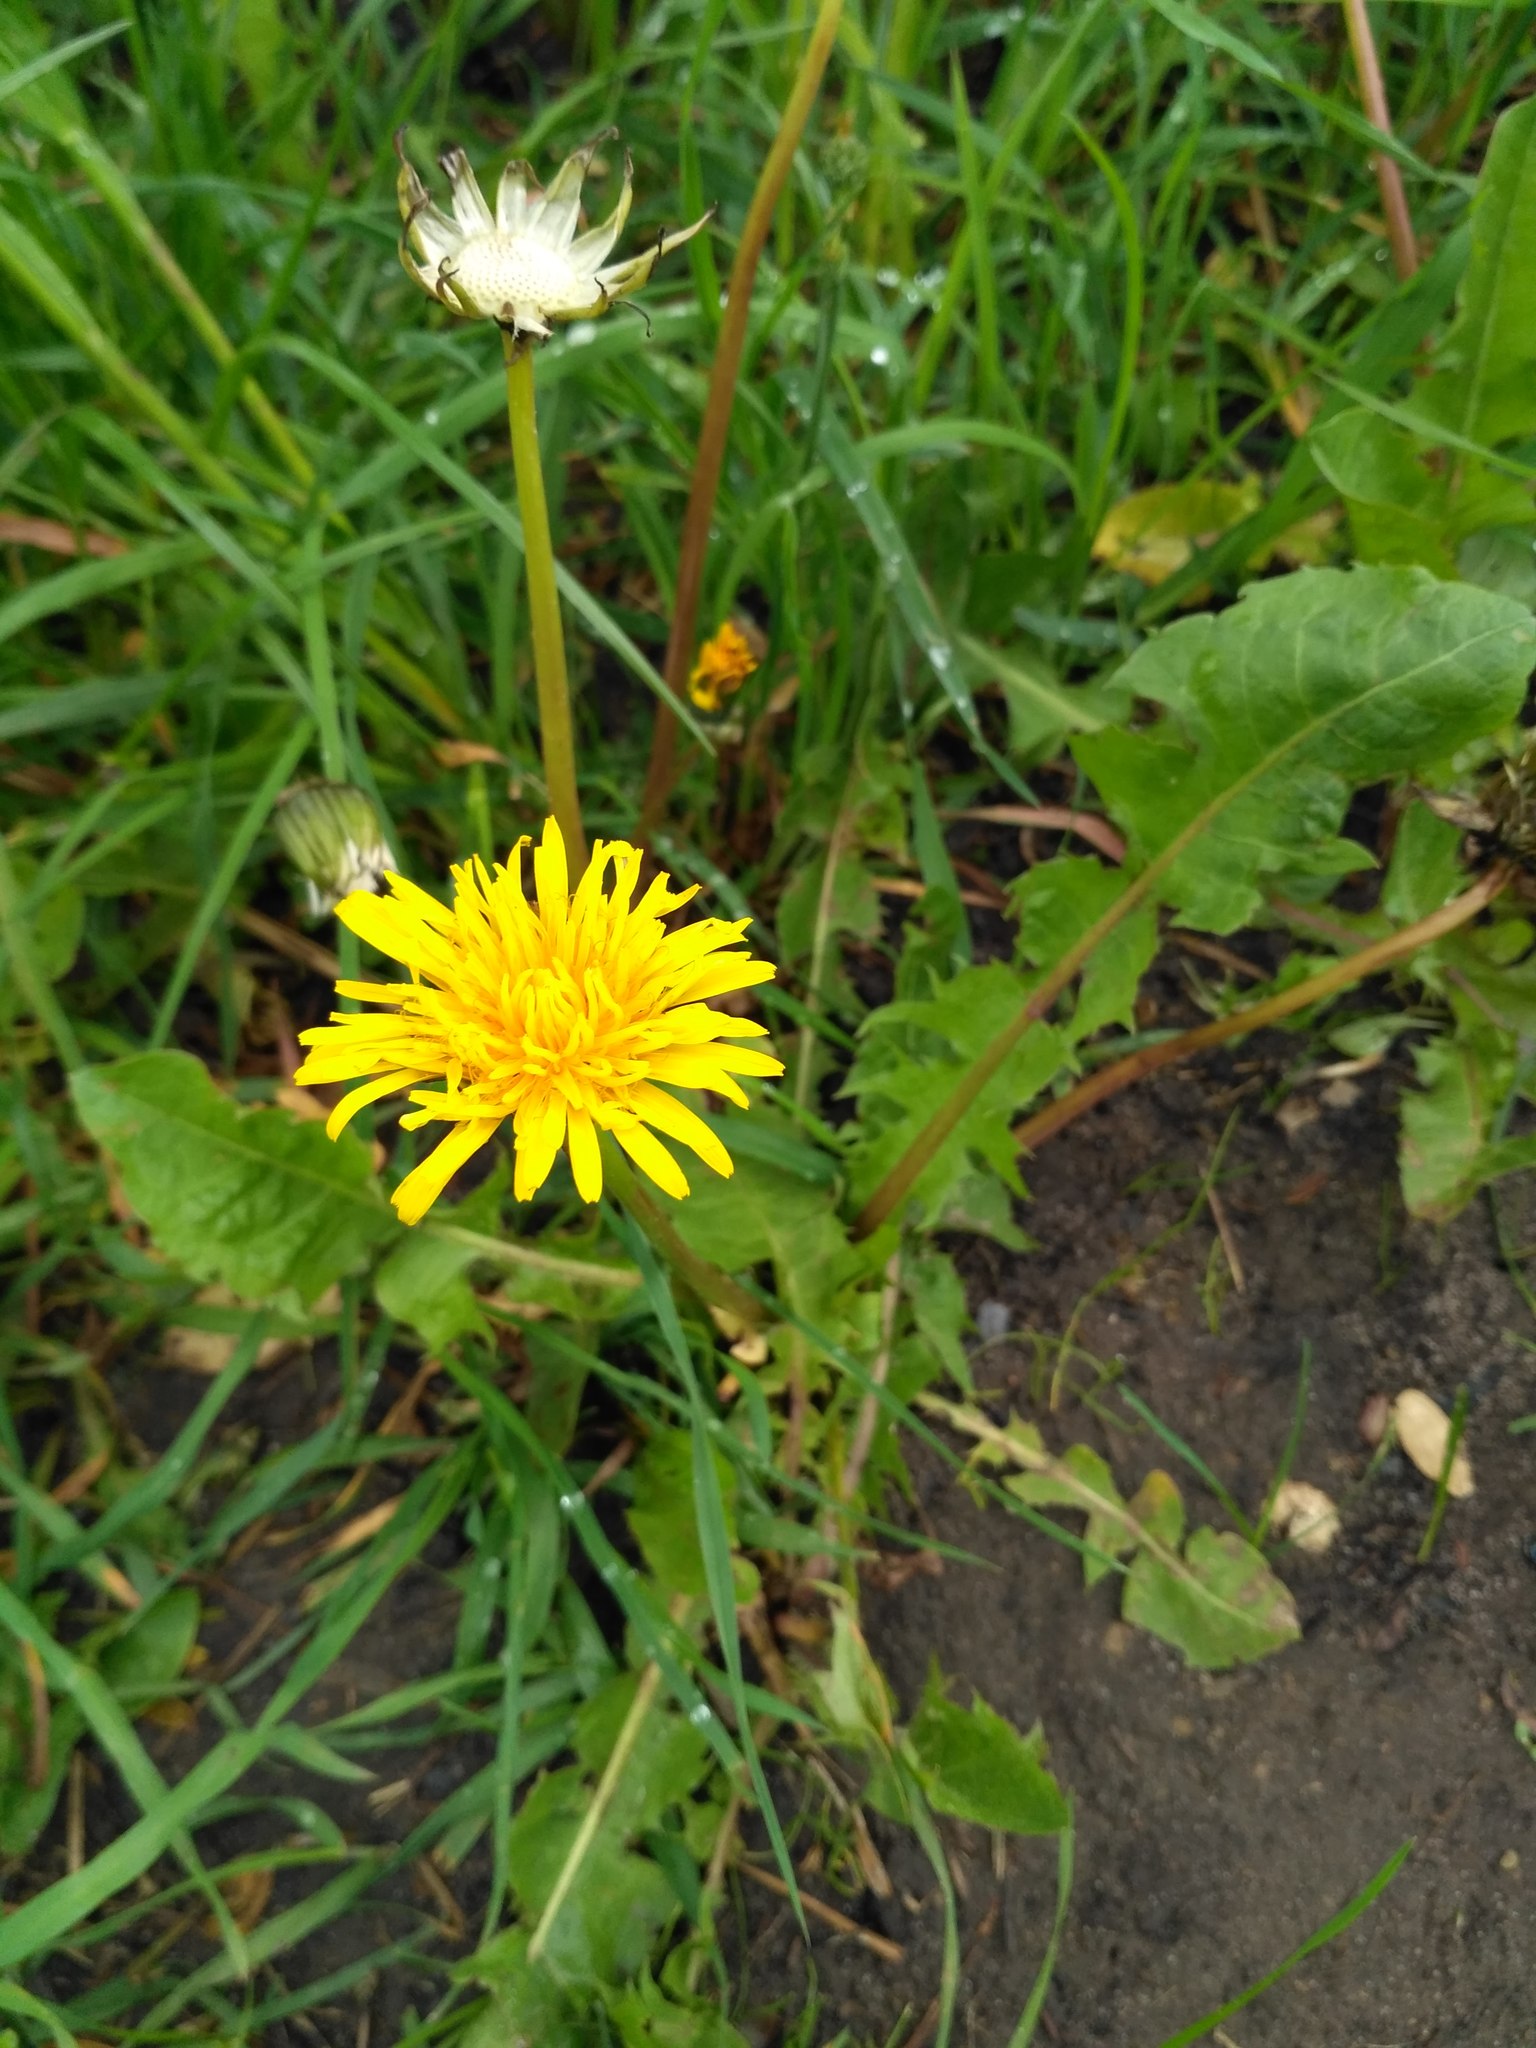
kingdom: Plantae
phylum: Tracheophyta
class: Magnoliopsida
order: Asterales
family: Asteraceae
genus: Taraxacum
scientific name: Taraxacum officinale
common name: Common dandelion
